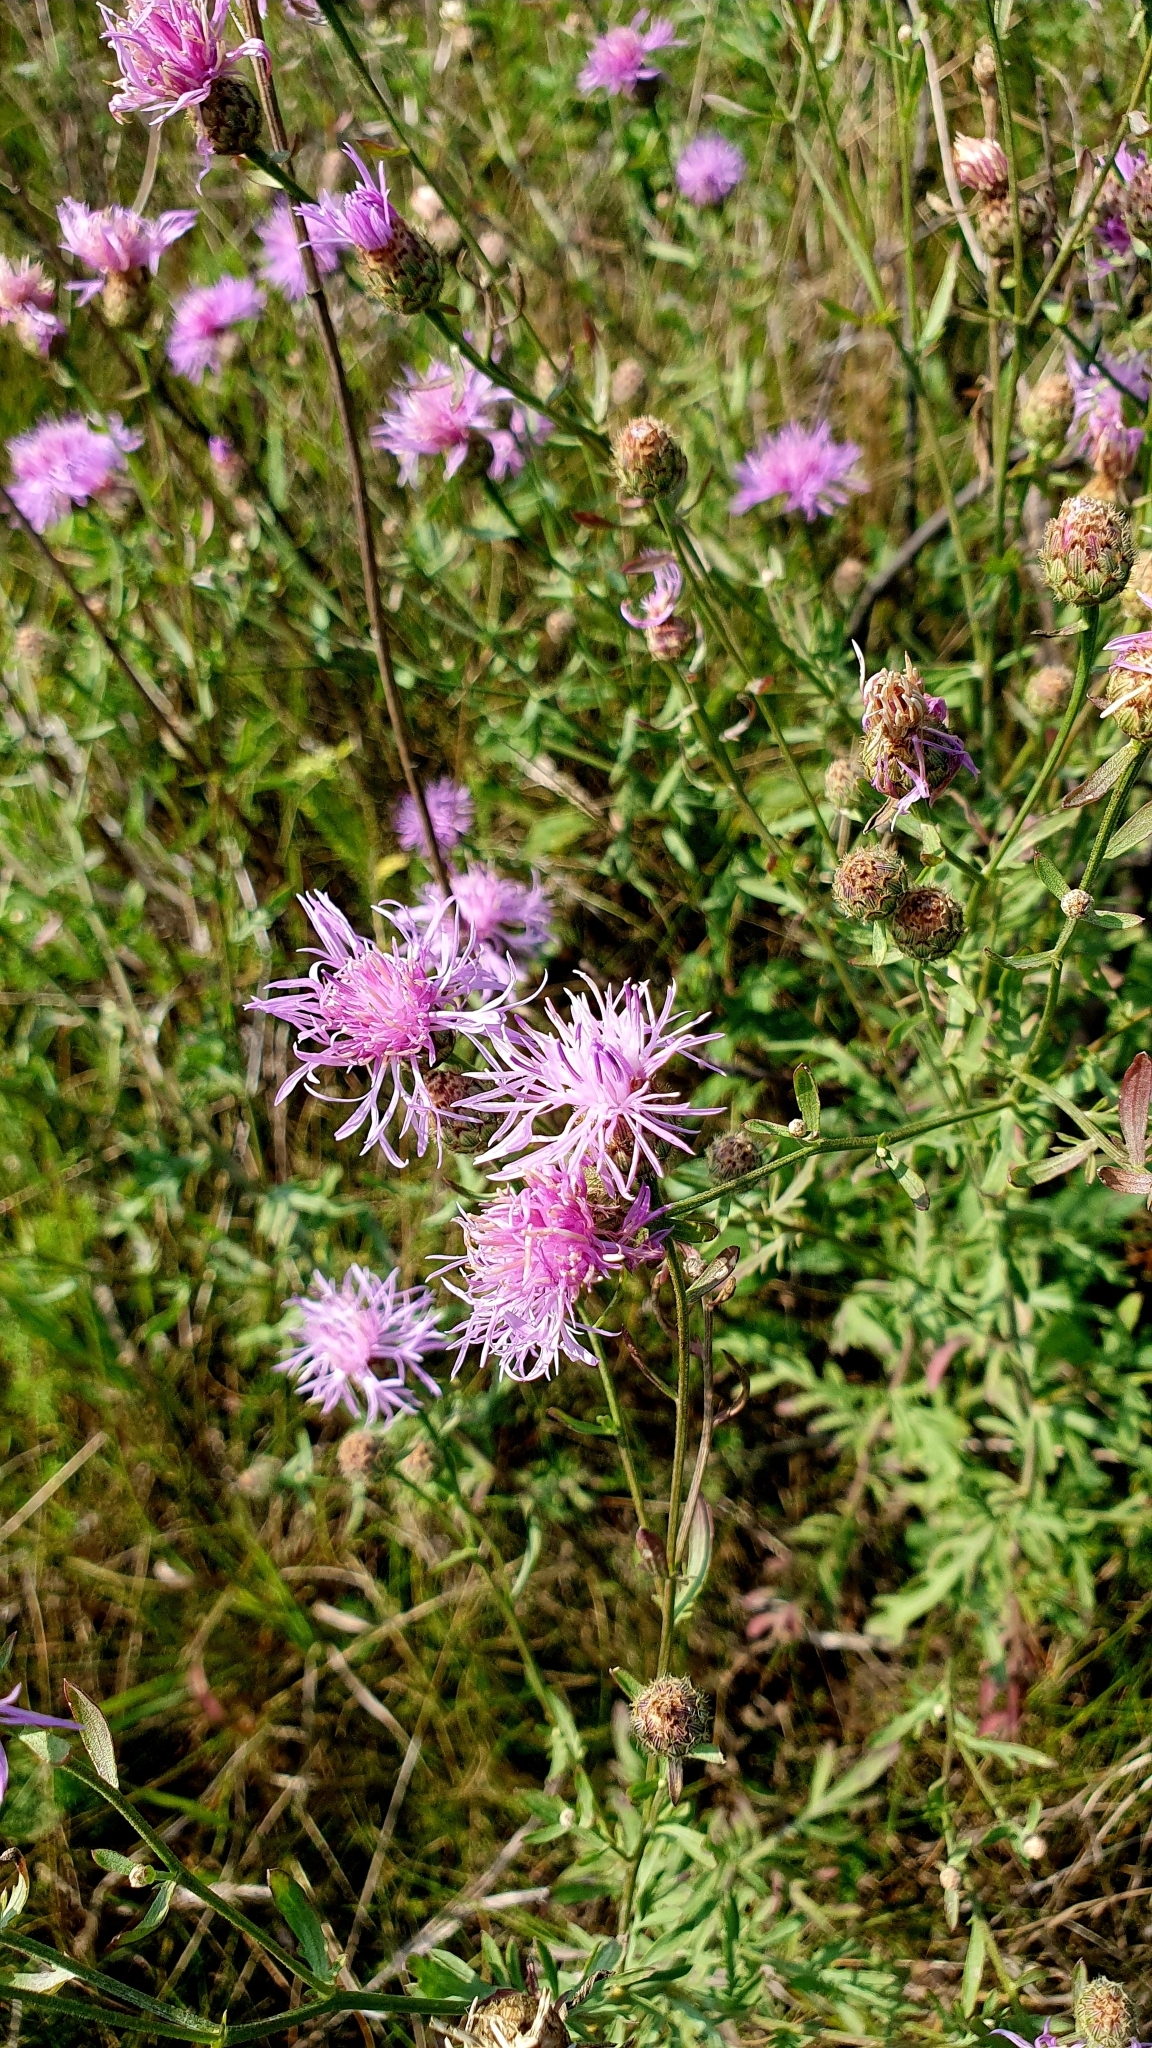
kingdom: Plantae
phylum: Tracheophyta
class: Magnoliopsida
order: Asterales
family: Asteraceae
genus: Centaurea
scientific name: Centaurea stoebe
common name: Spotted knapweed
